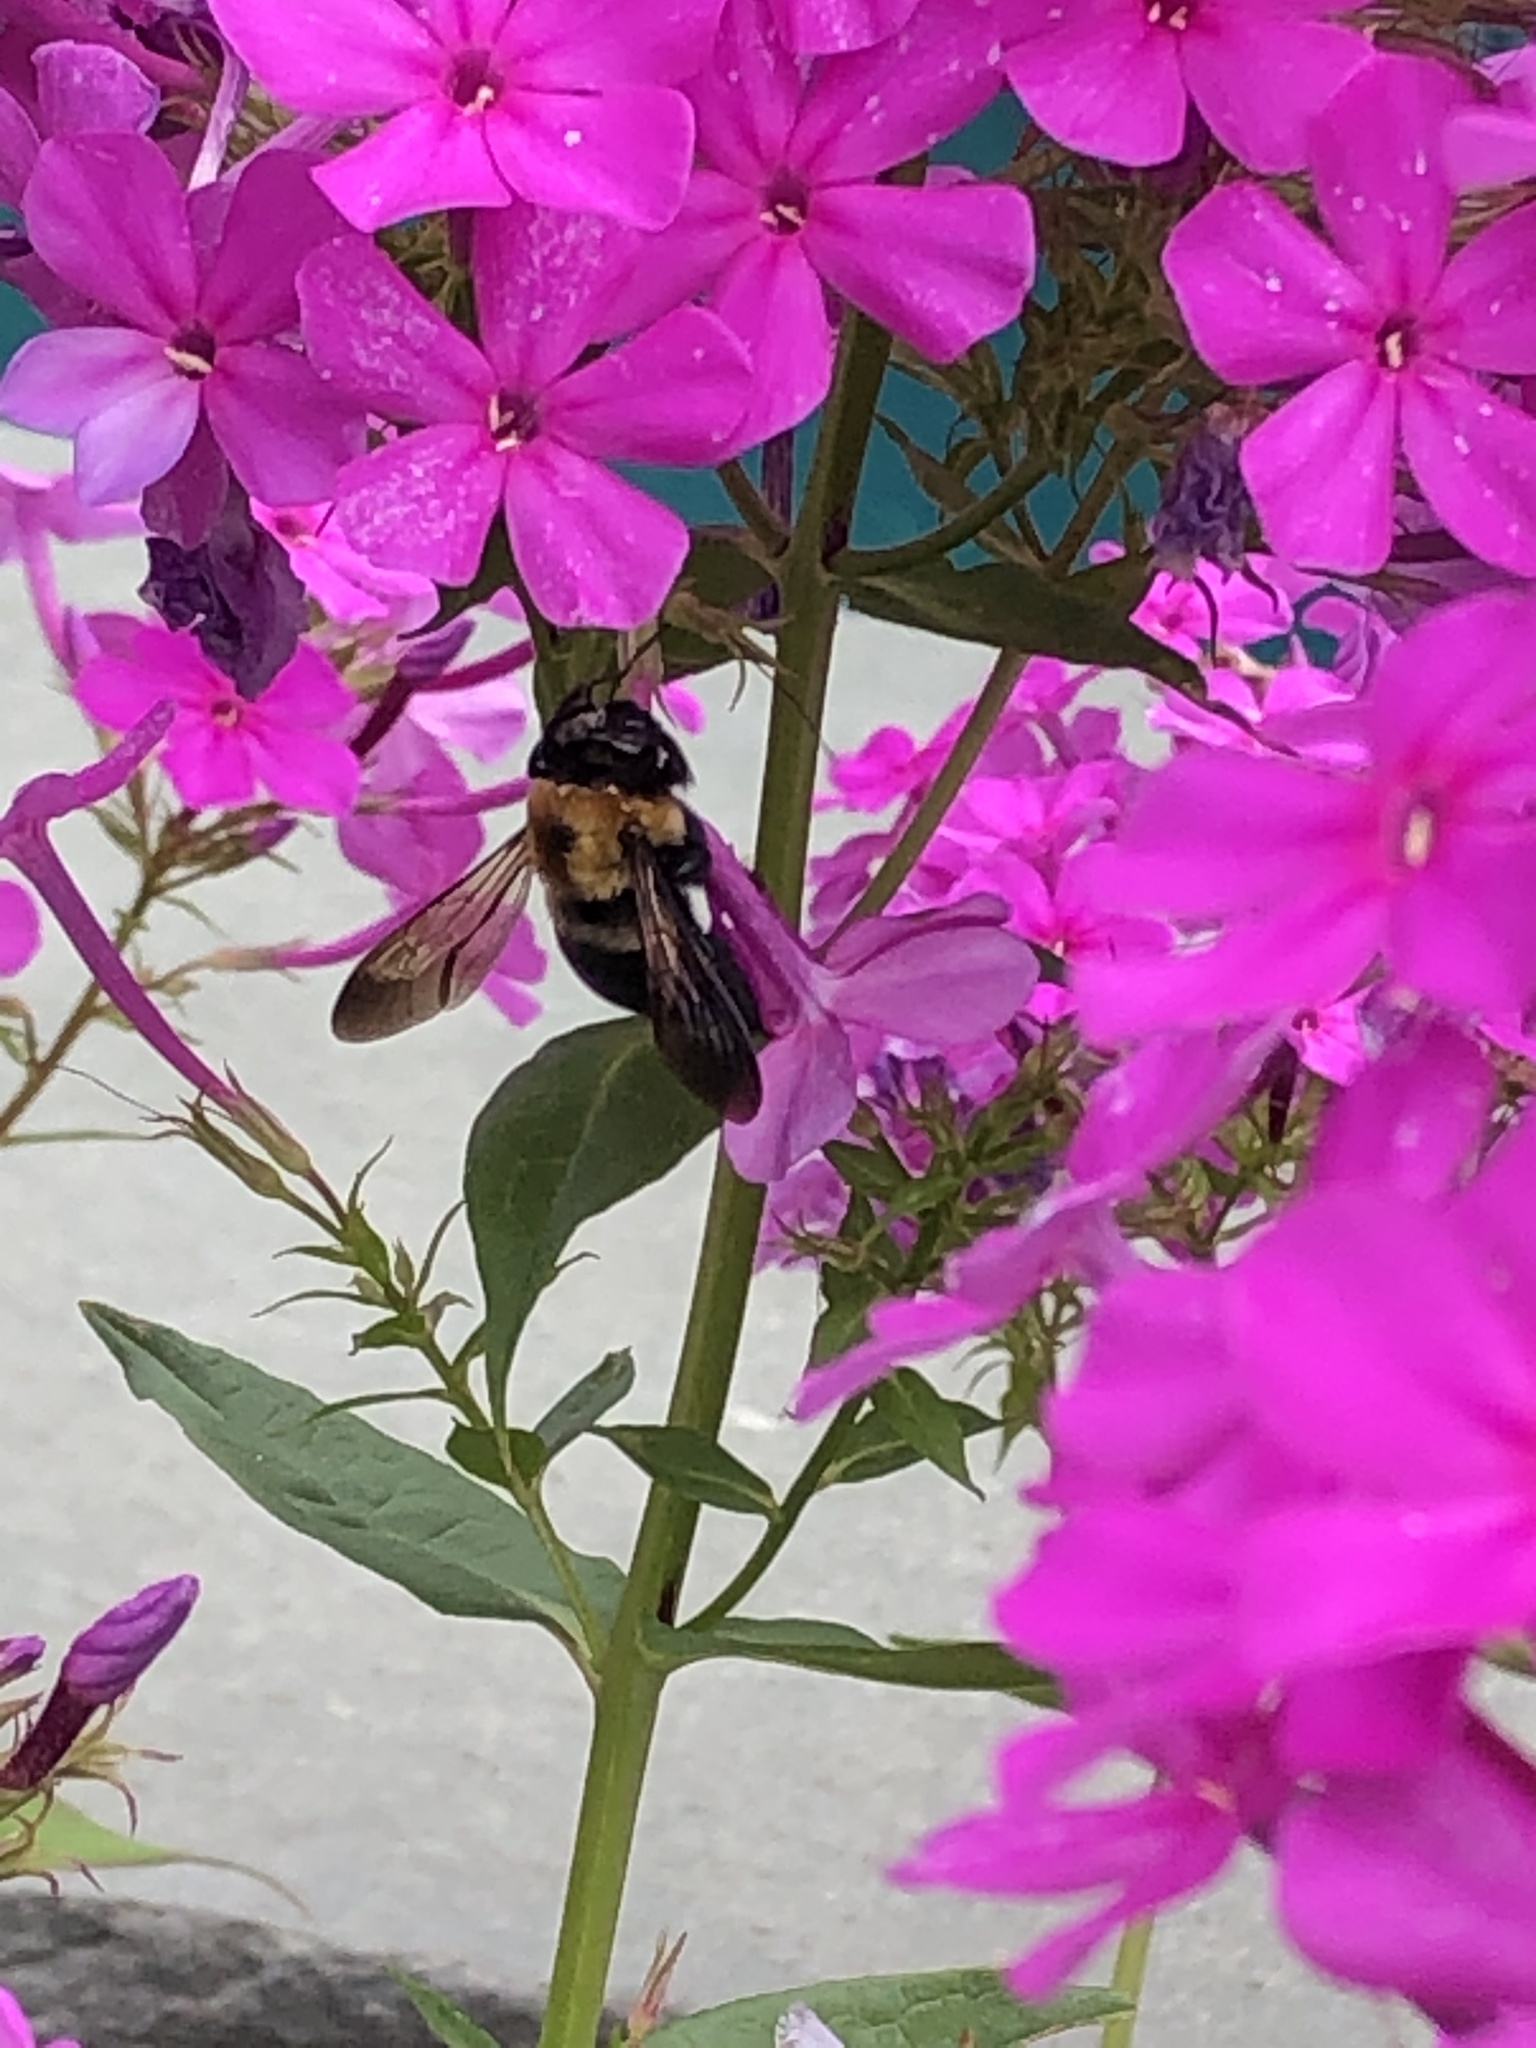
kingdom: Animalia
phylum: Arthropoda
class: Insecta
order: Hymenoptera
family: Apidae
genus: Xylocopa
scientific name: Xylocopa virginica
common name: Carpenter bee
